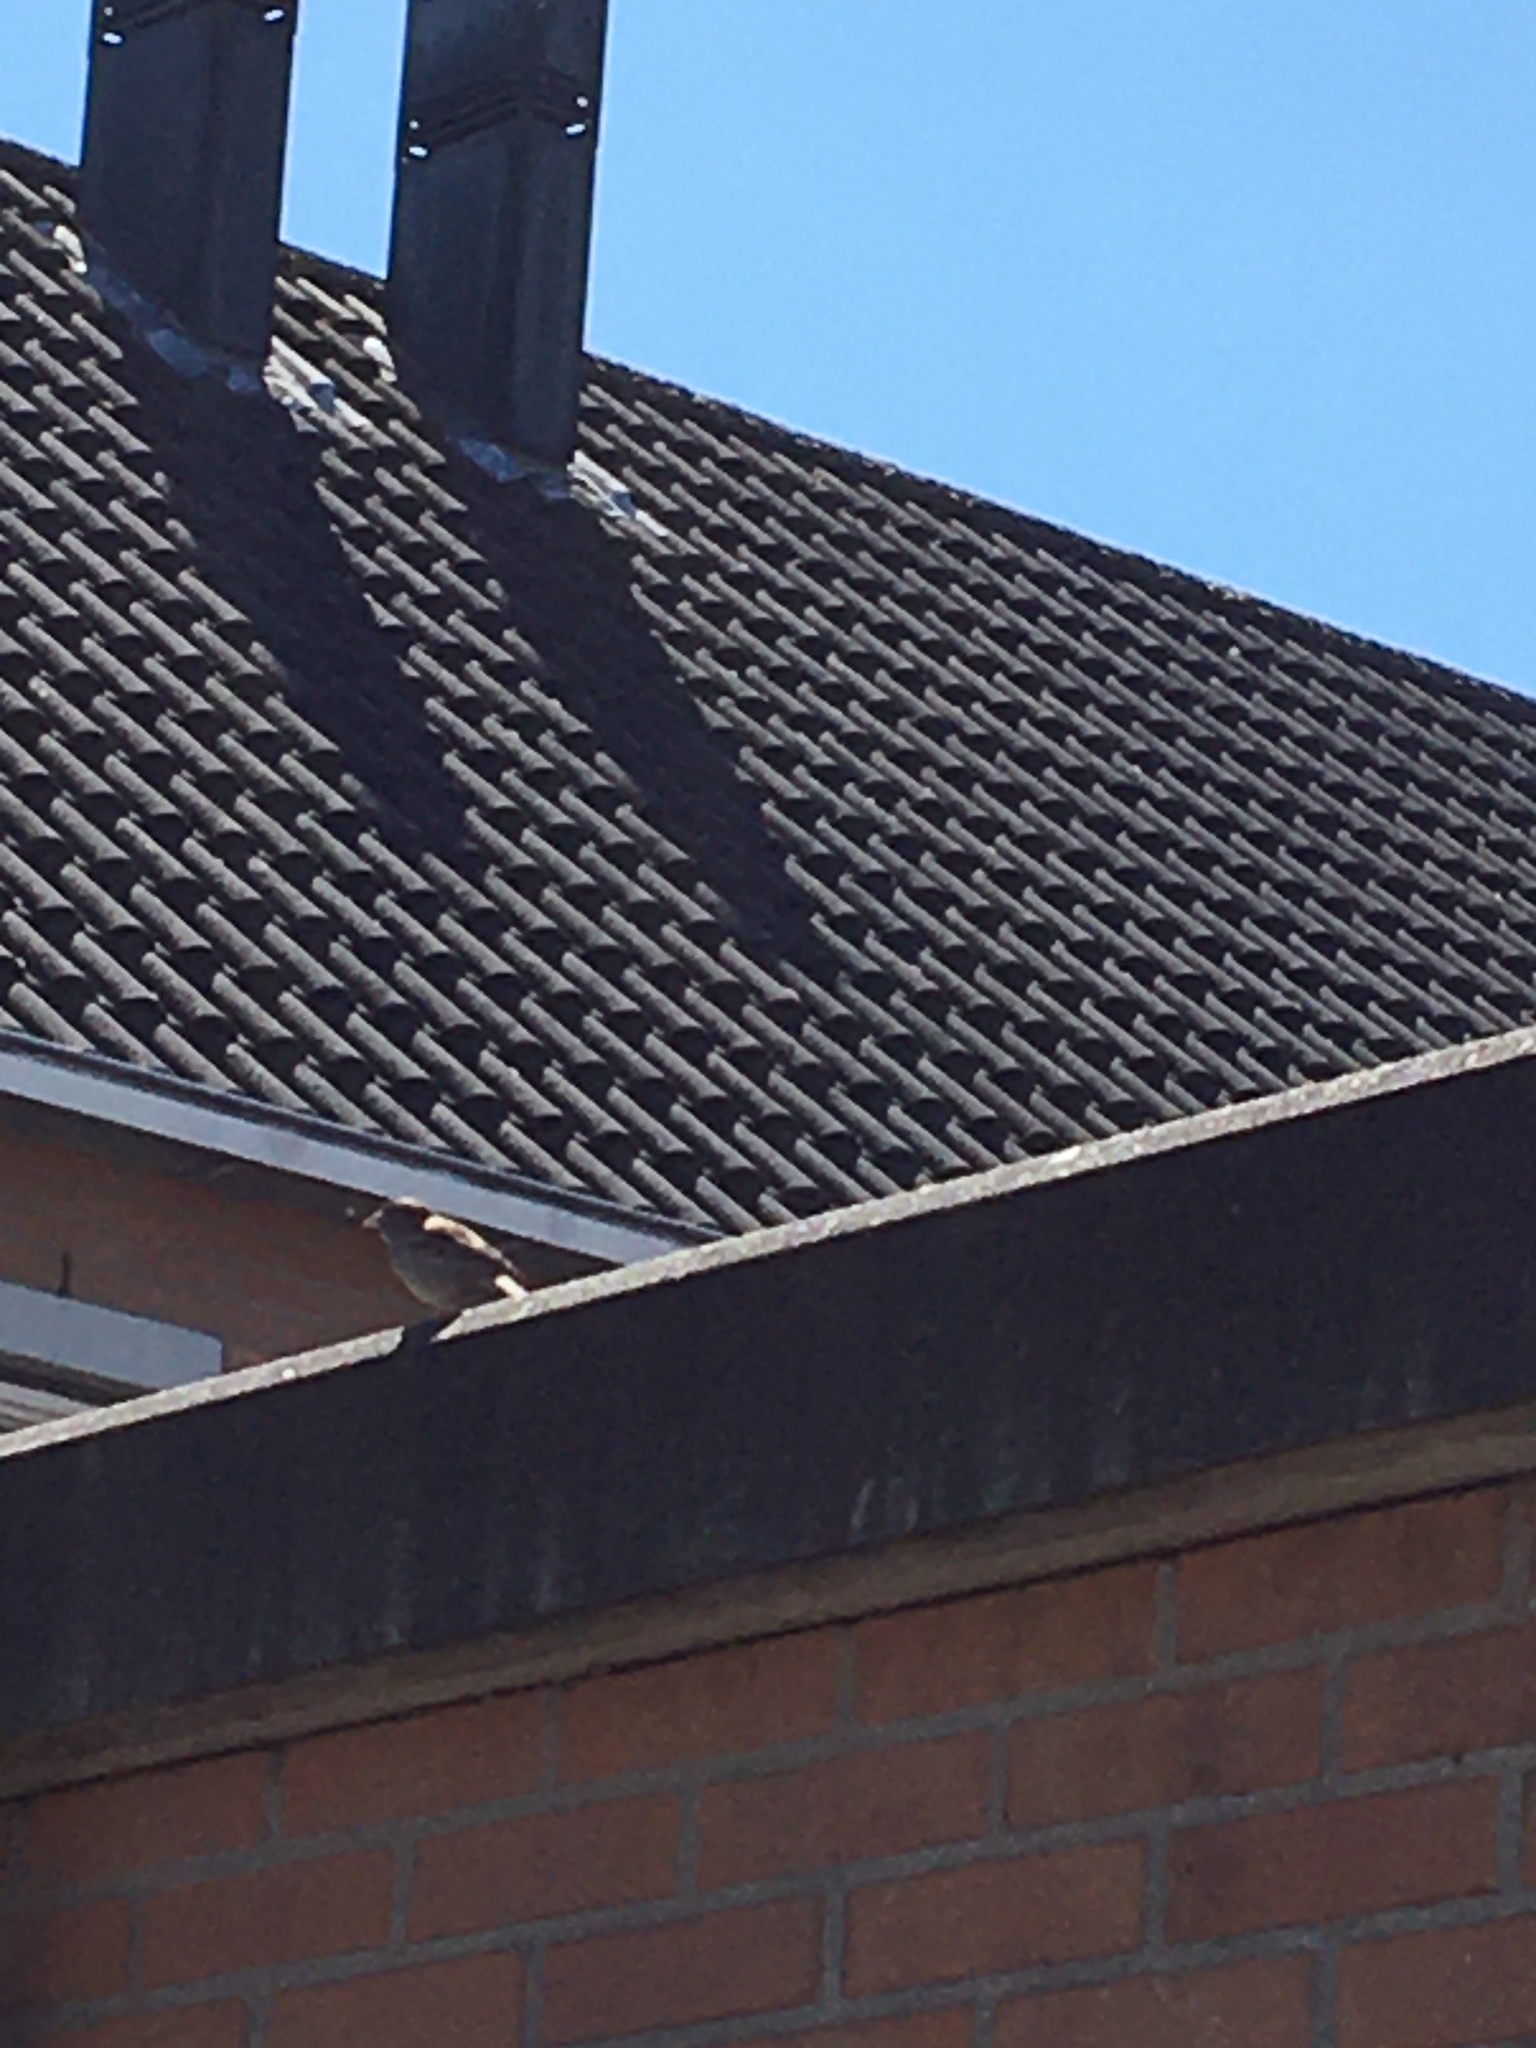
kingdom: Animalia
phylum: Chordata
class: Aves
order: Passeriformes
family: Passeridae
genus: Passer
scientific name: Passer domesticus
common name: House sparrow
